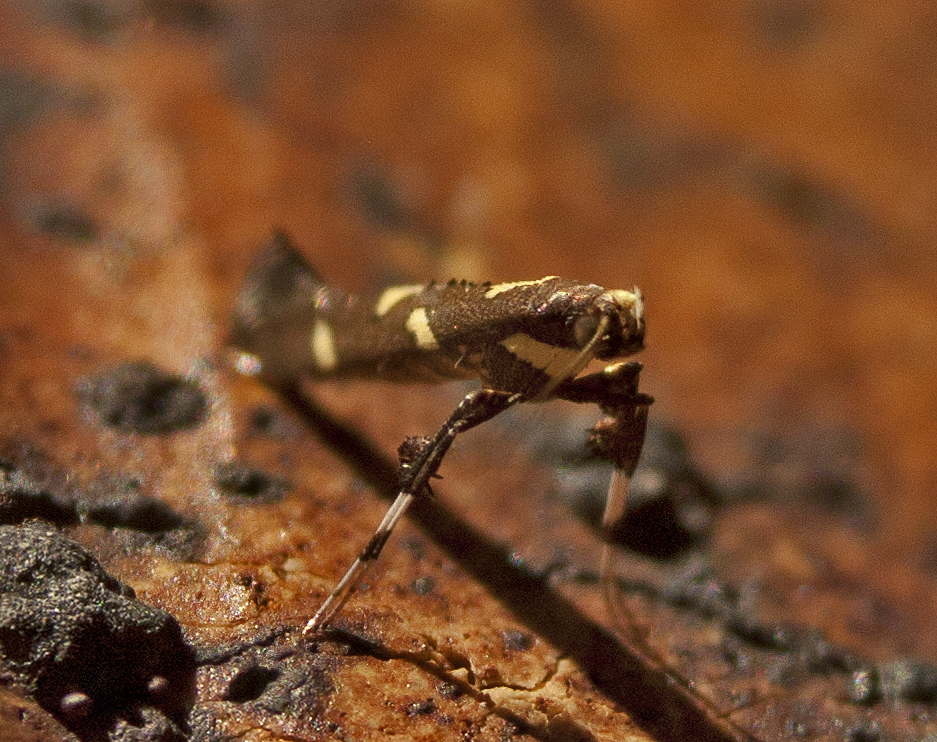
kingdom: Animalia
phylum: Arthropoda
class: Insecta
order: Lepidoptera
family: Gracillariidae
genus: Caloptilia
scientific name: Caloptilia adelosema
